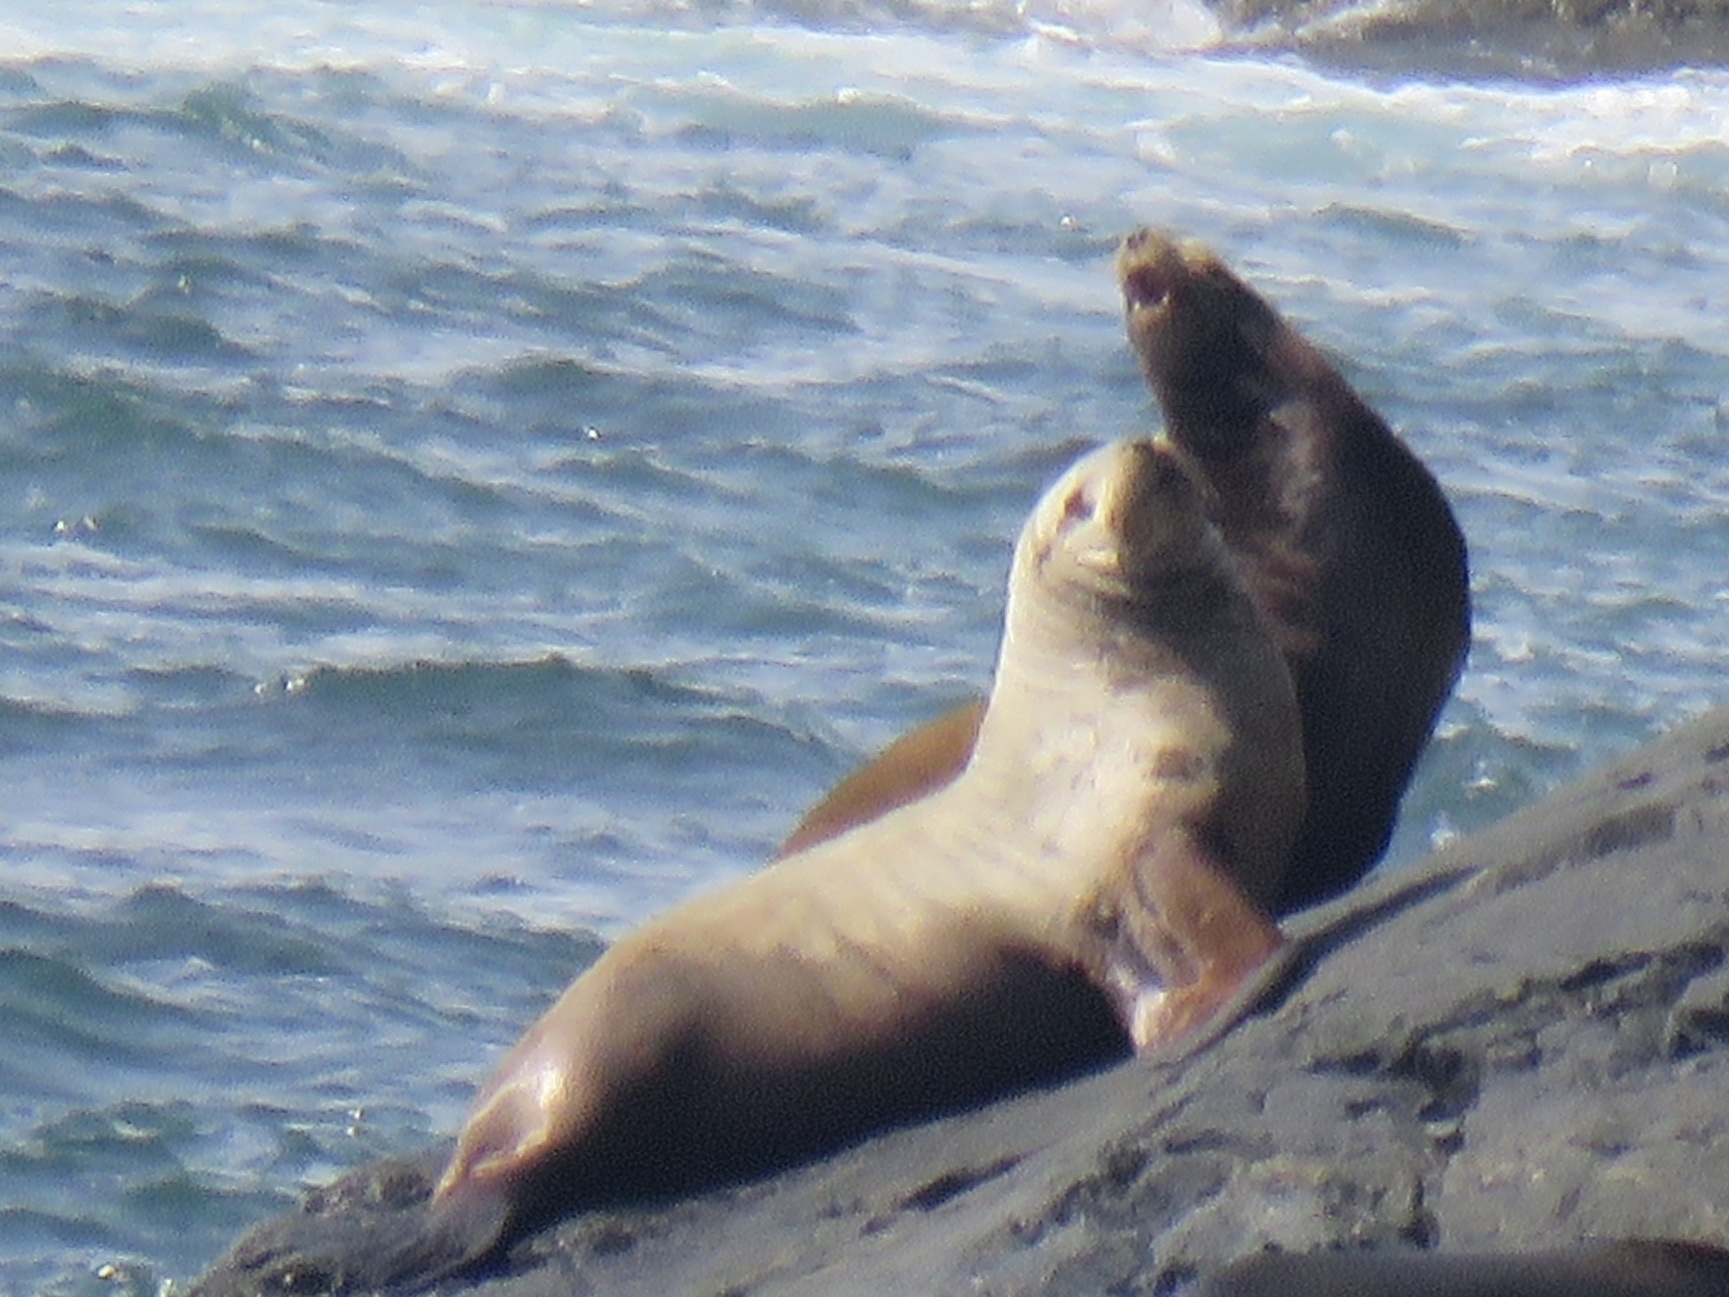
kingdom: Animalia
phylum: Chordata
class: Mammalia
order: Carnivora
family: Otariidae
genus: Eumetopias
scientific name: Eumetopias jubatus
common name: Steller sea lion
